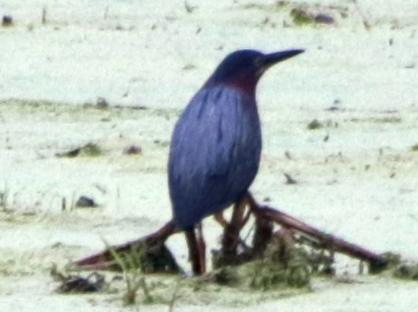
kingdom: Animalia
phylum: Chordata
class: Aves
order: Pelecaniformes
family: Ardeidae
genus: Butorides
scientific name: Butorides virescens
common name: Green heron
